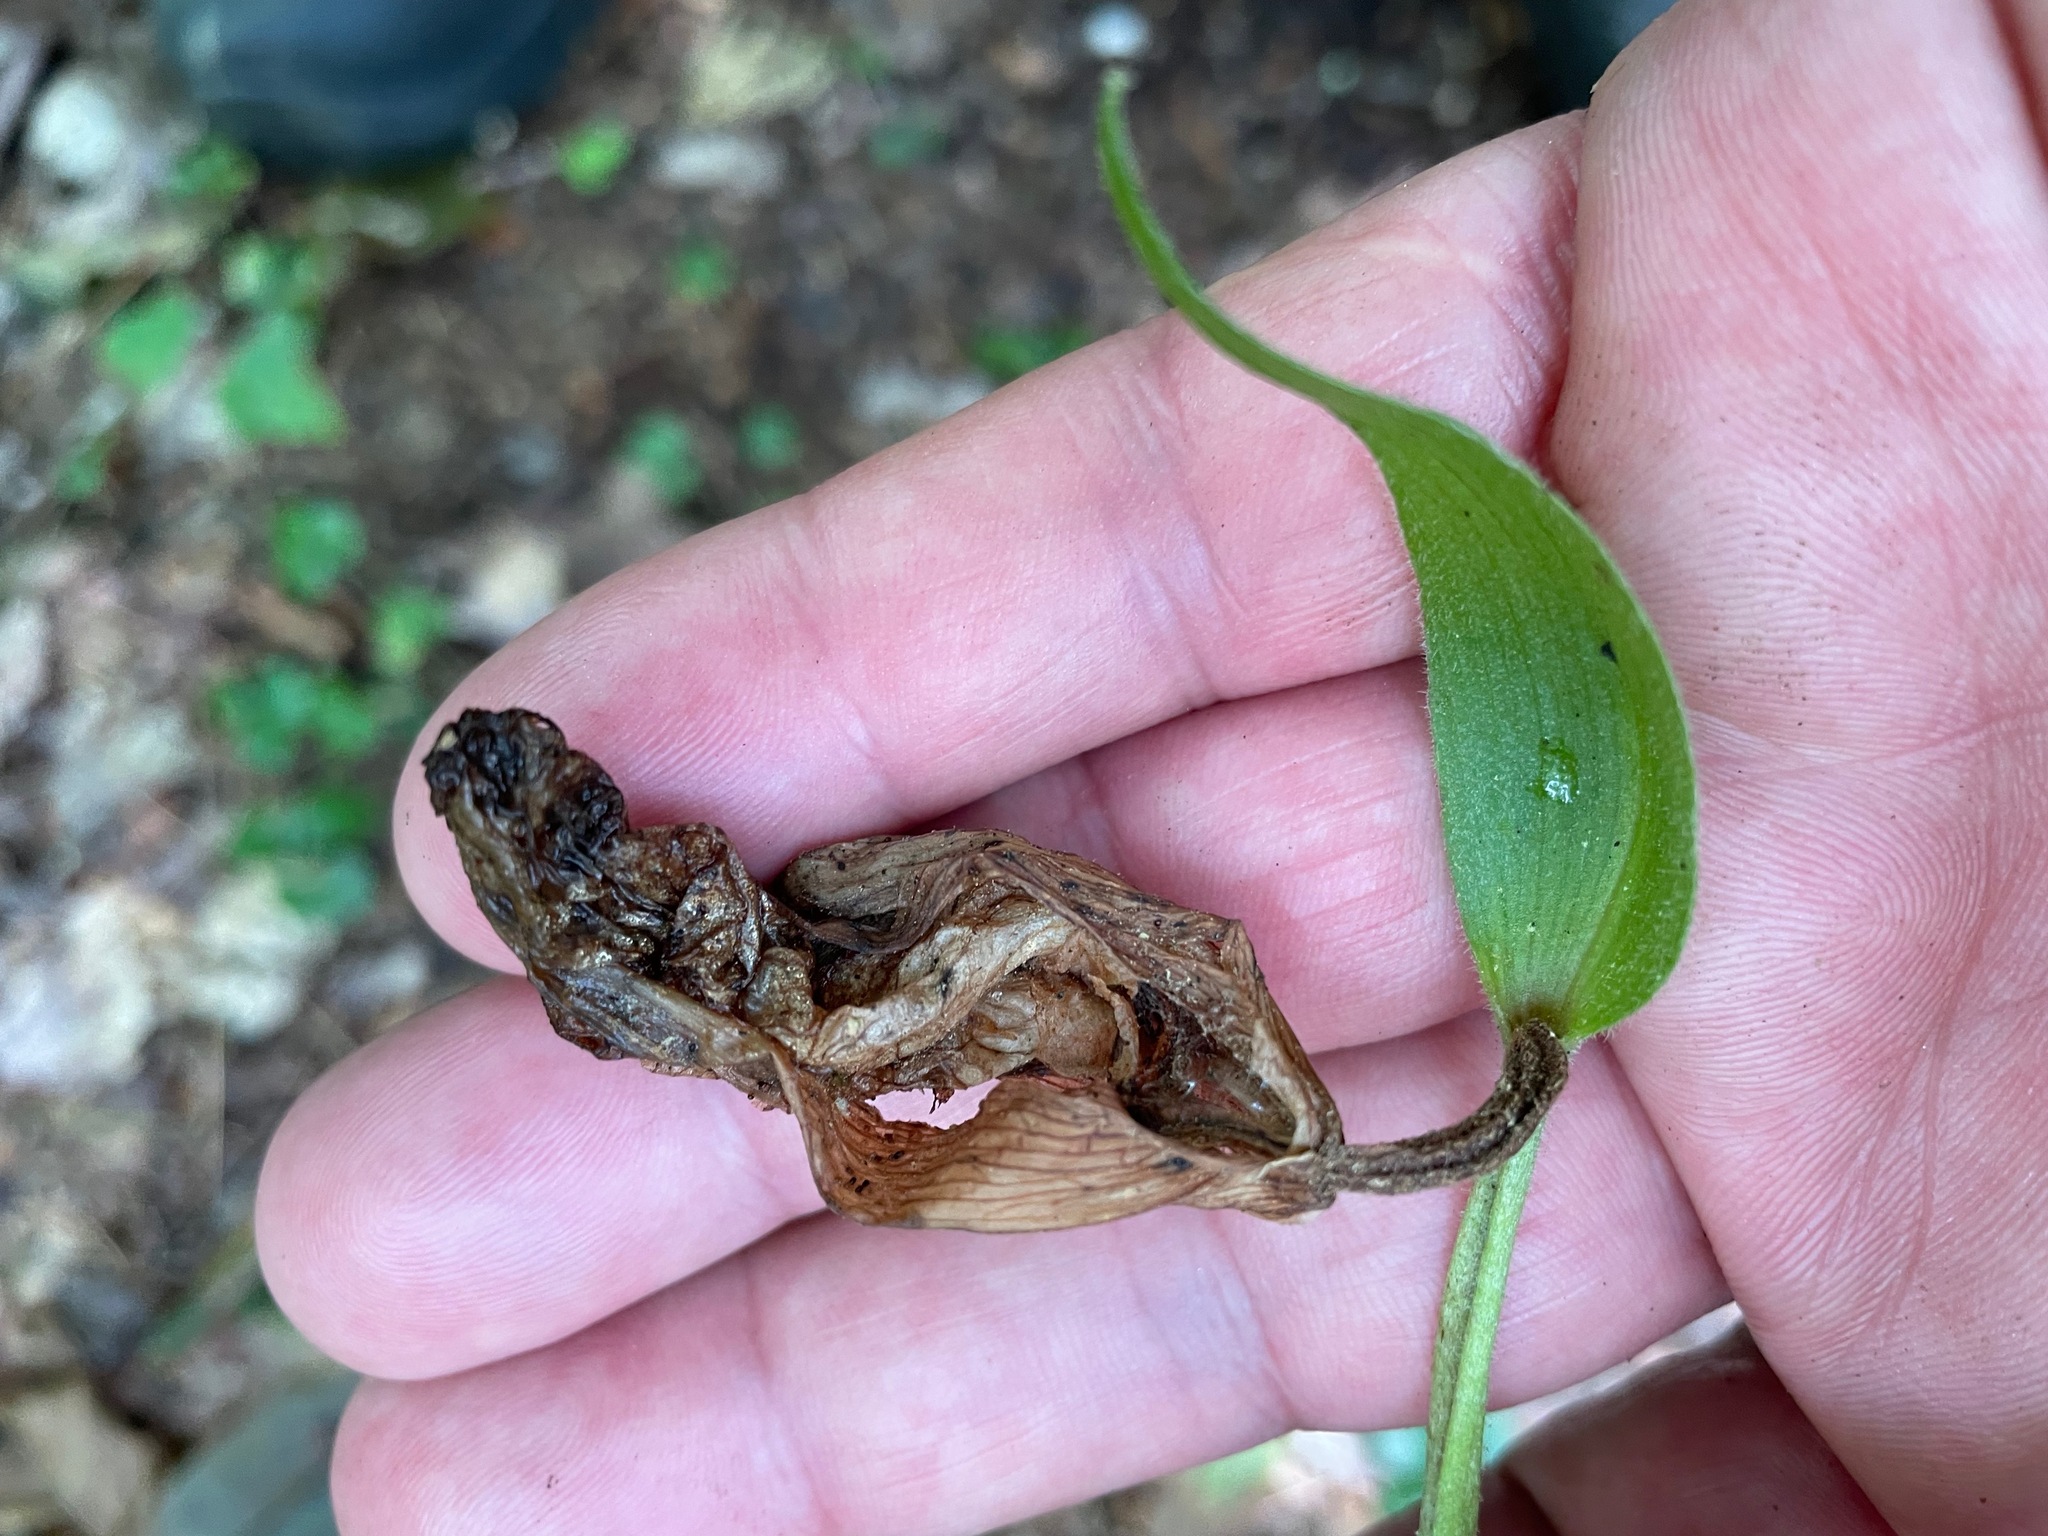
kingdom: Plantae
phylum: Tracheophyta
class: Liliopsida
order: Asparagales
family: Orchidaceae
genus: Cypripedium
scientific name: Cypripedium acaule
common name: Pink lady's-slipper
